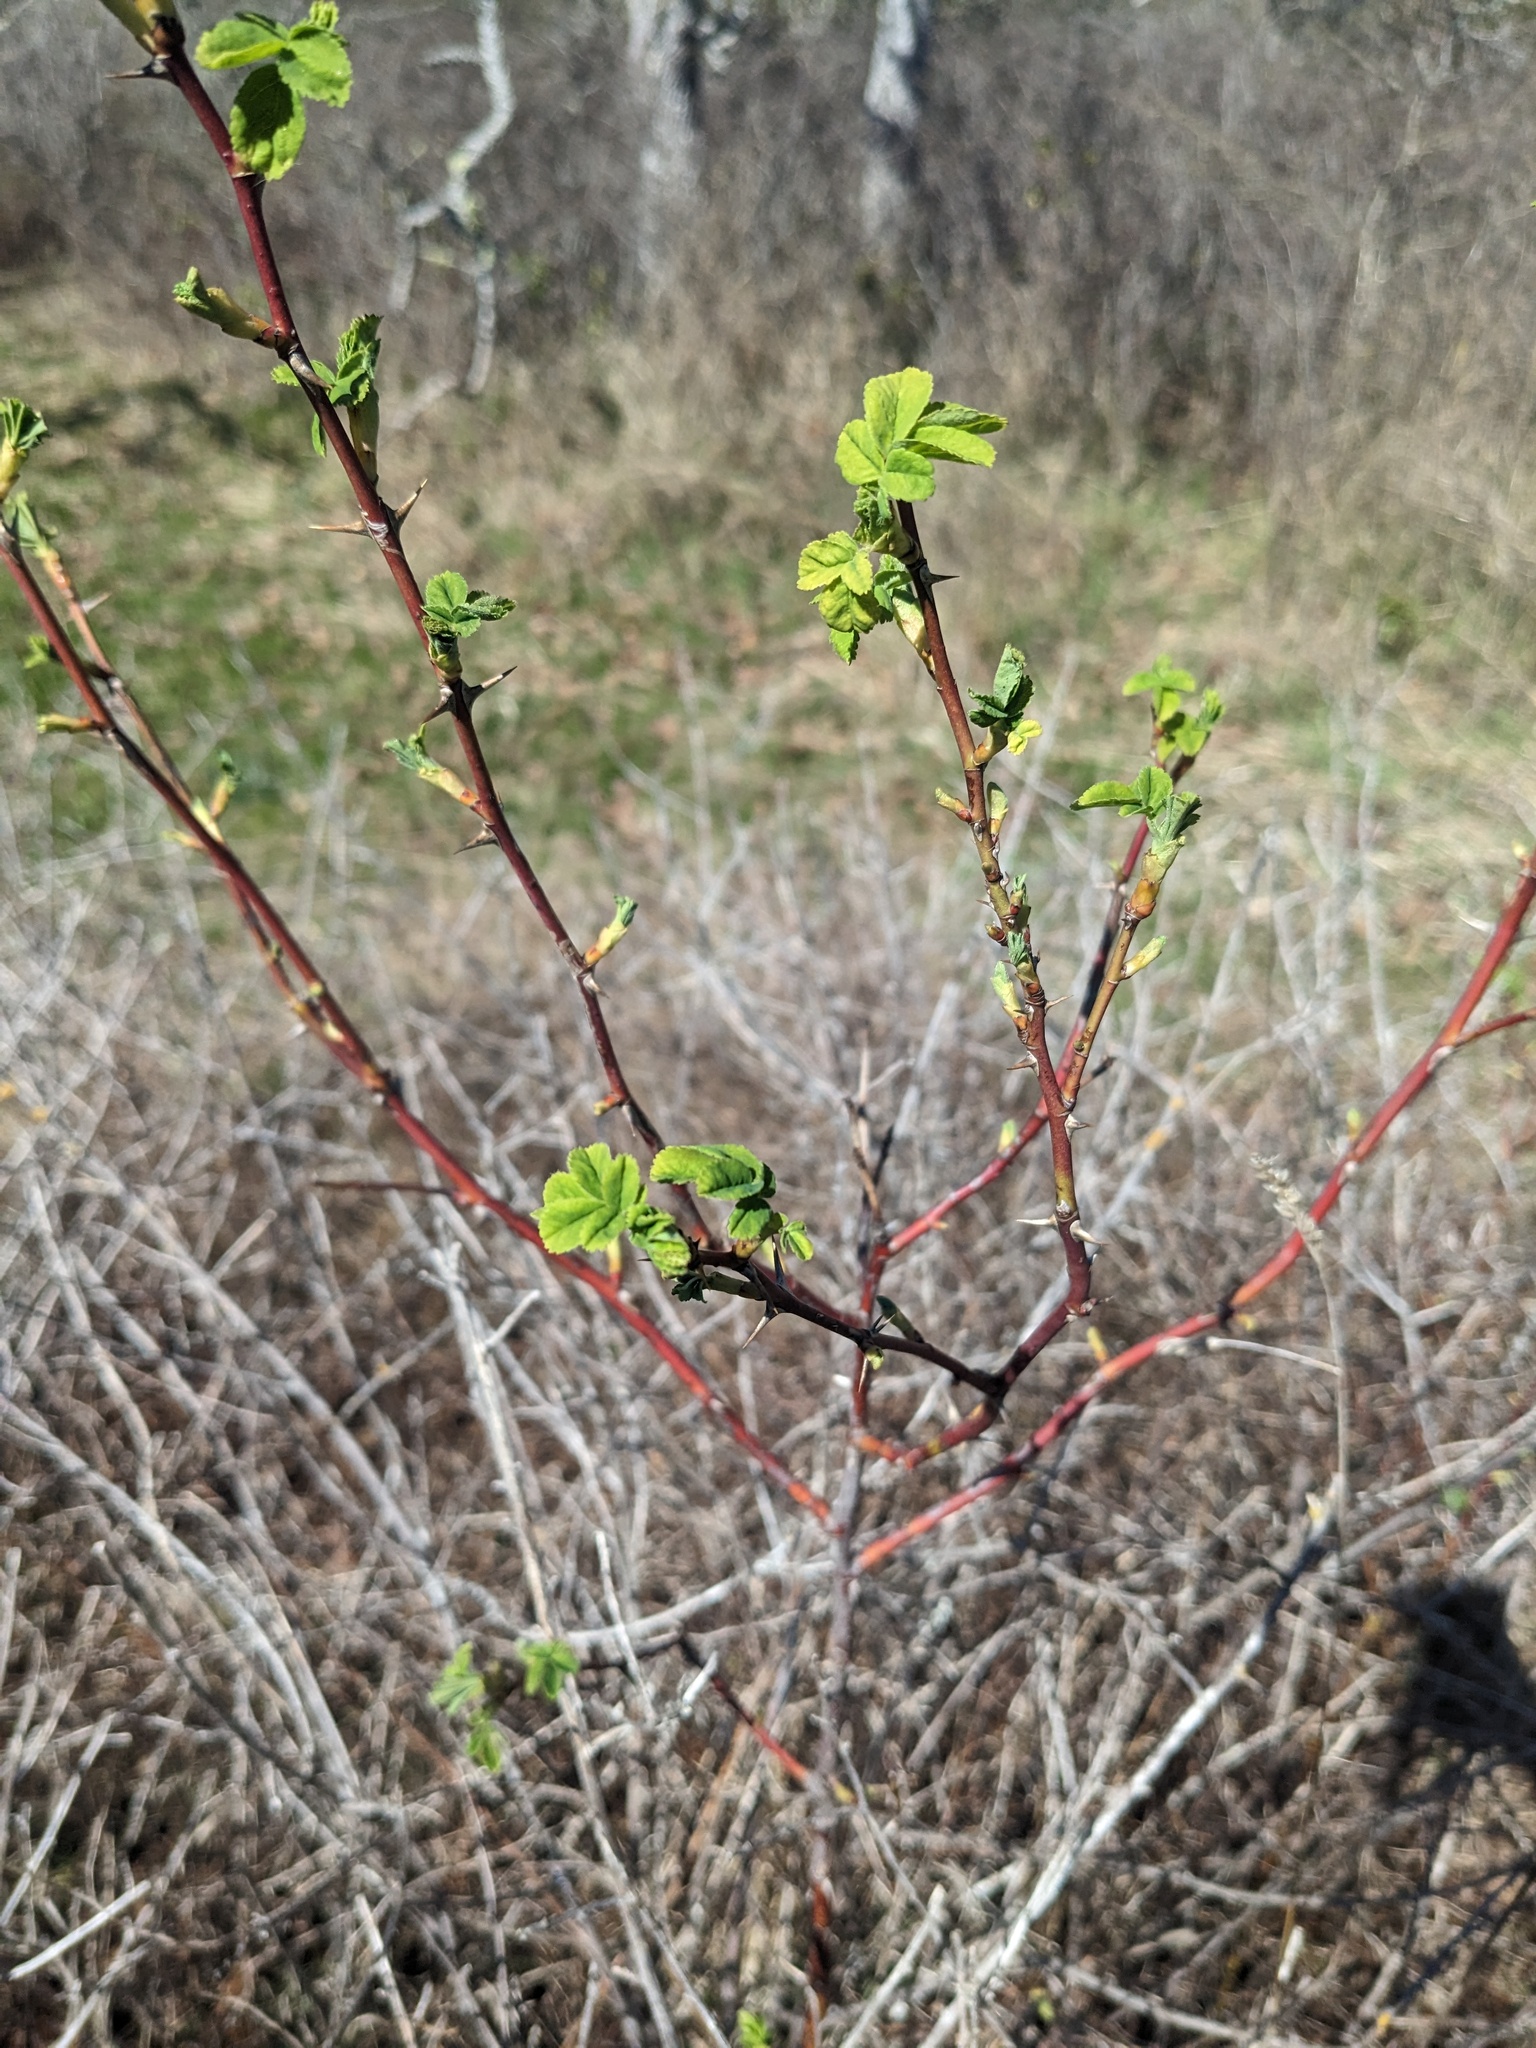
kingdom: Plantae
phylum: Tracheophyta
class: Magnoliopsida
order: Rosales
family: Rosaceae
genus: Rosa
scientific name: Rosa nutkana
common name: Nootka rose
